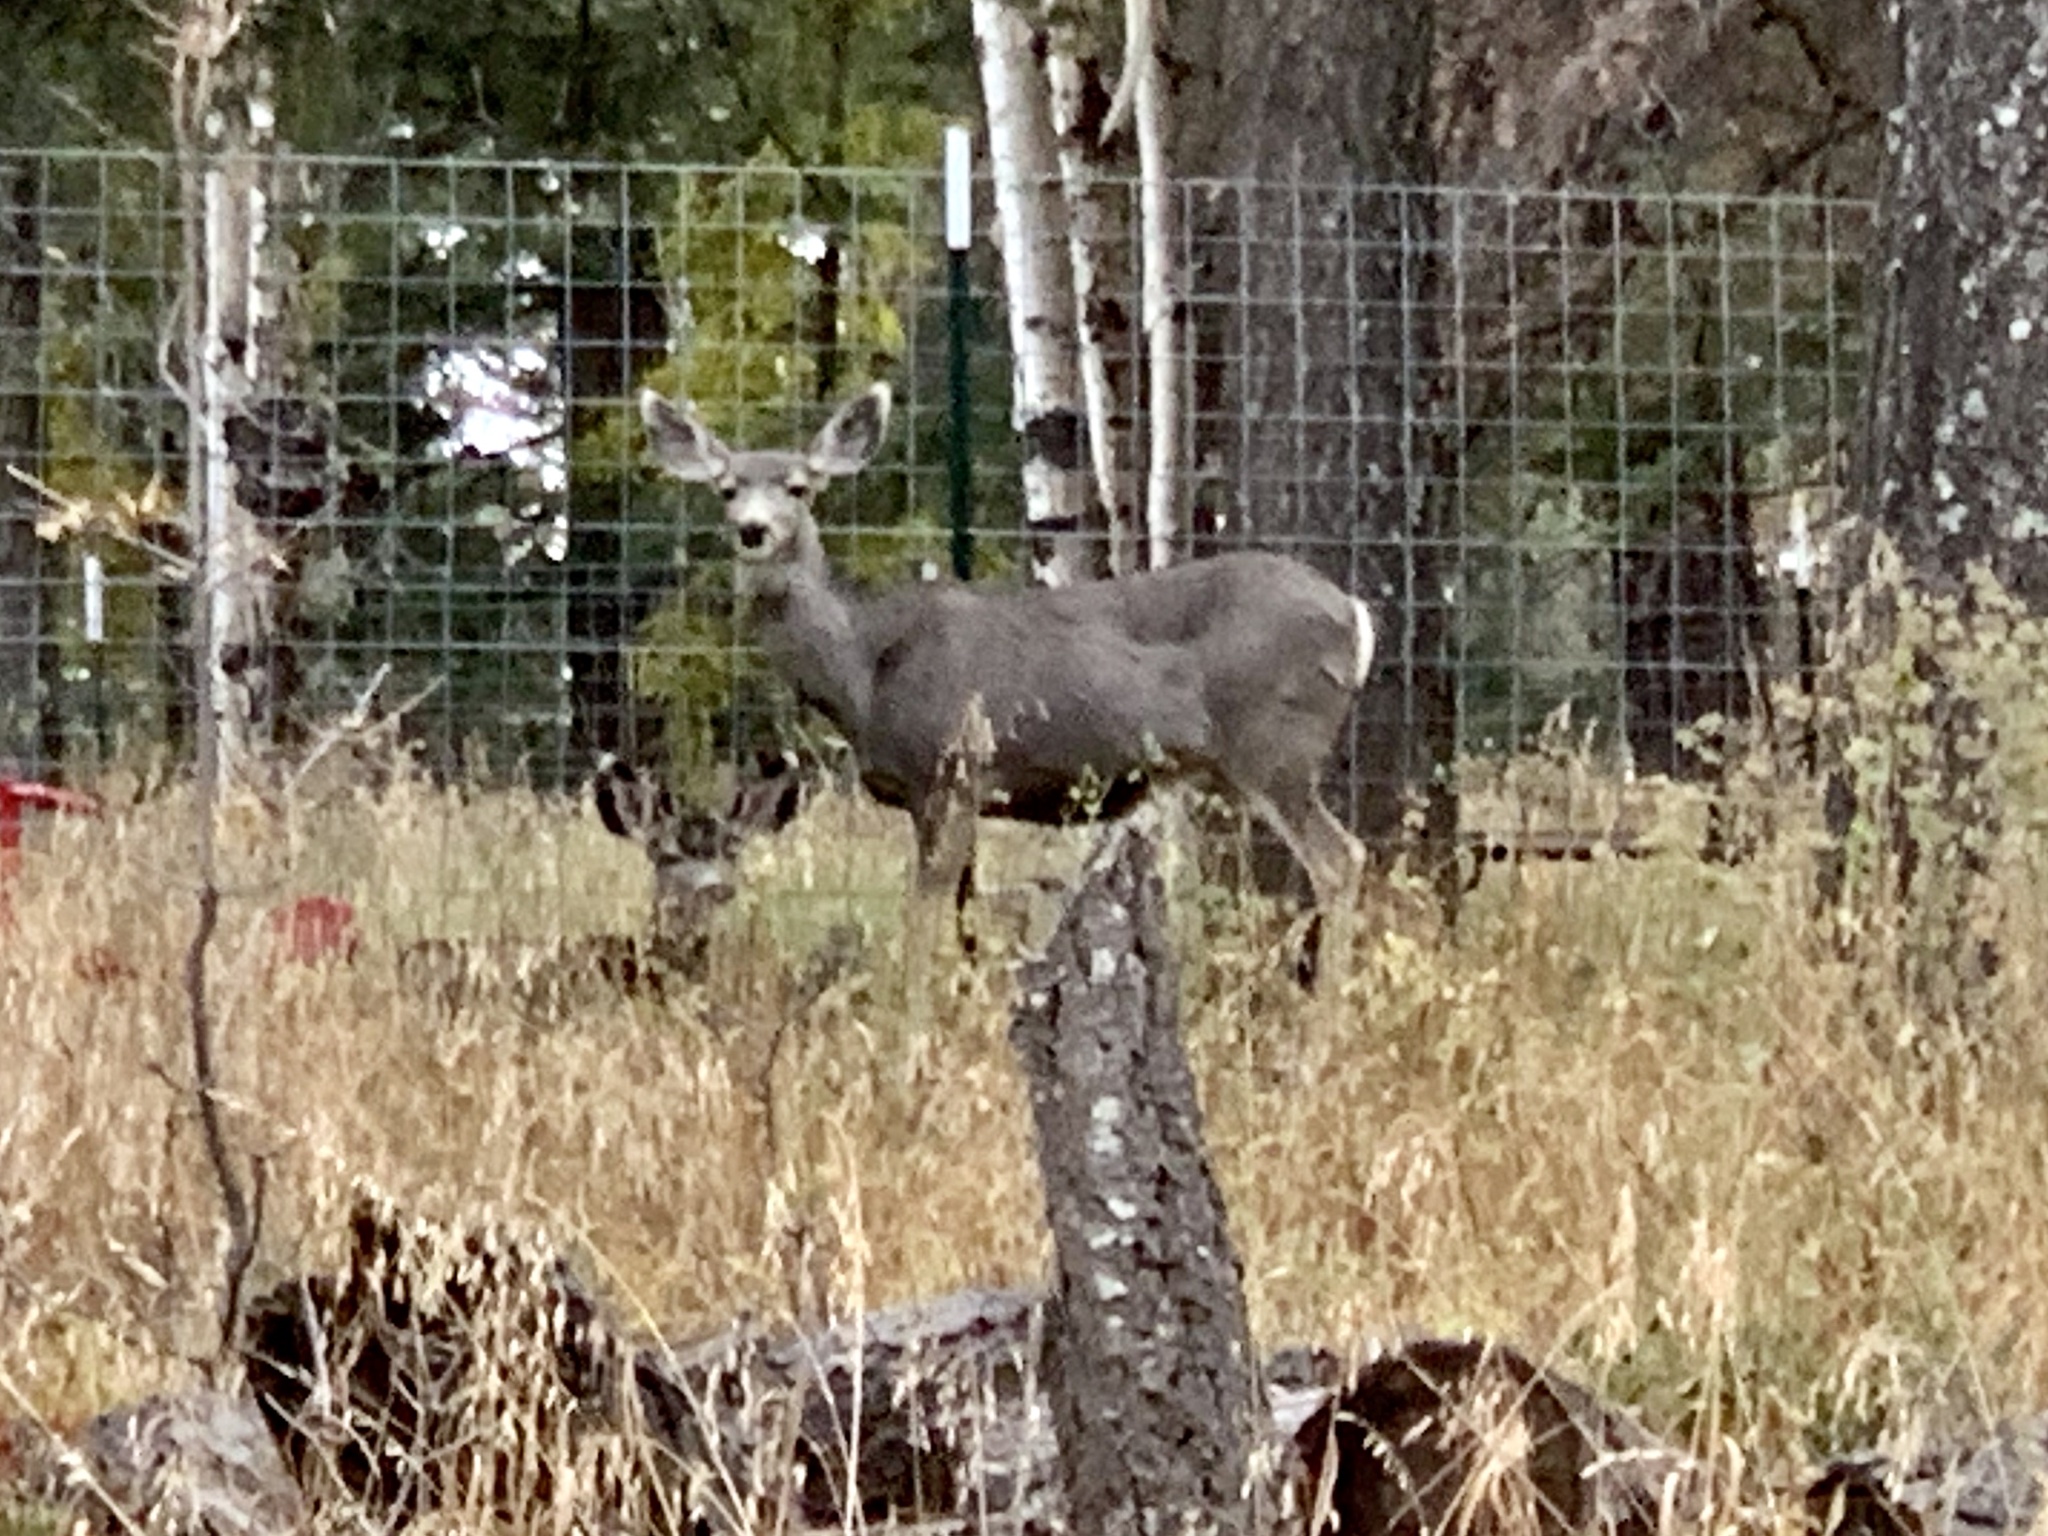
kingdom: Animalia
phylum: Chordata
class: Mammalia
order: Artiodactyla
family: Cervidae
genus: Odocoileus
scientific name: Odocoileus hemionus
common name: Mule deer
